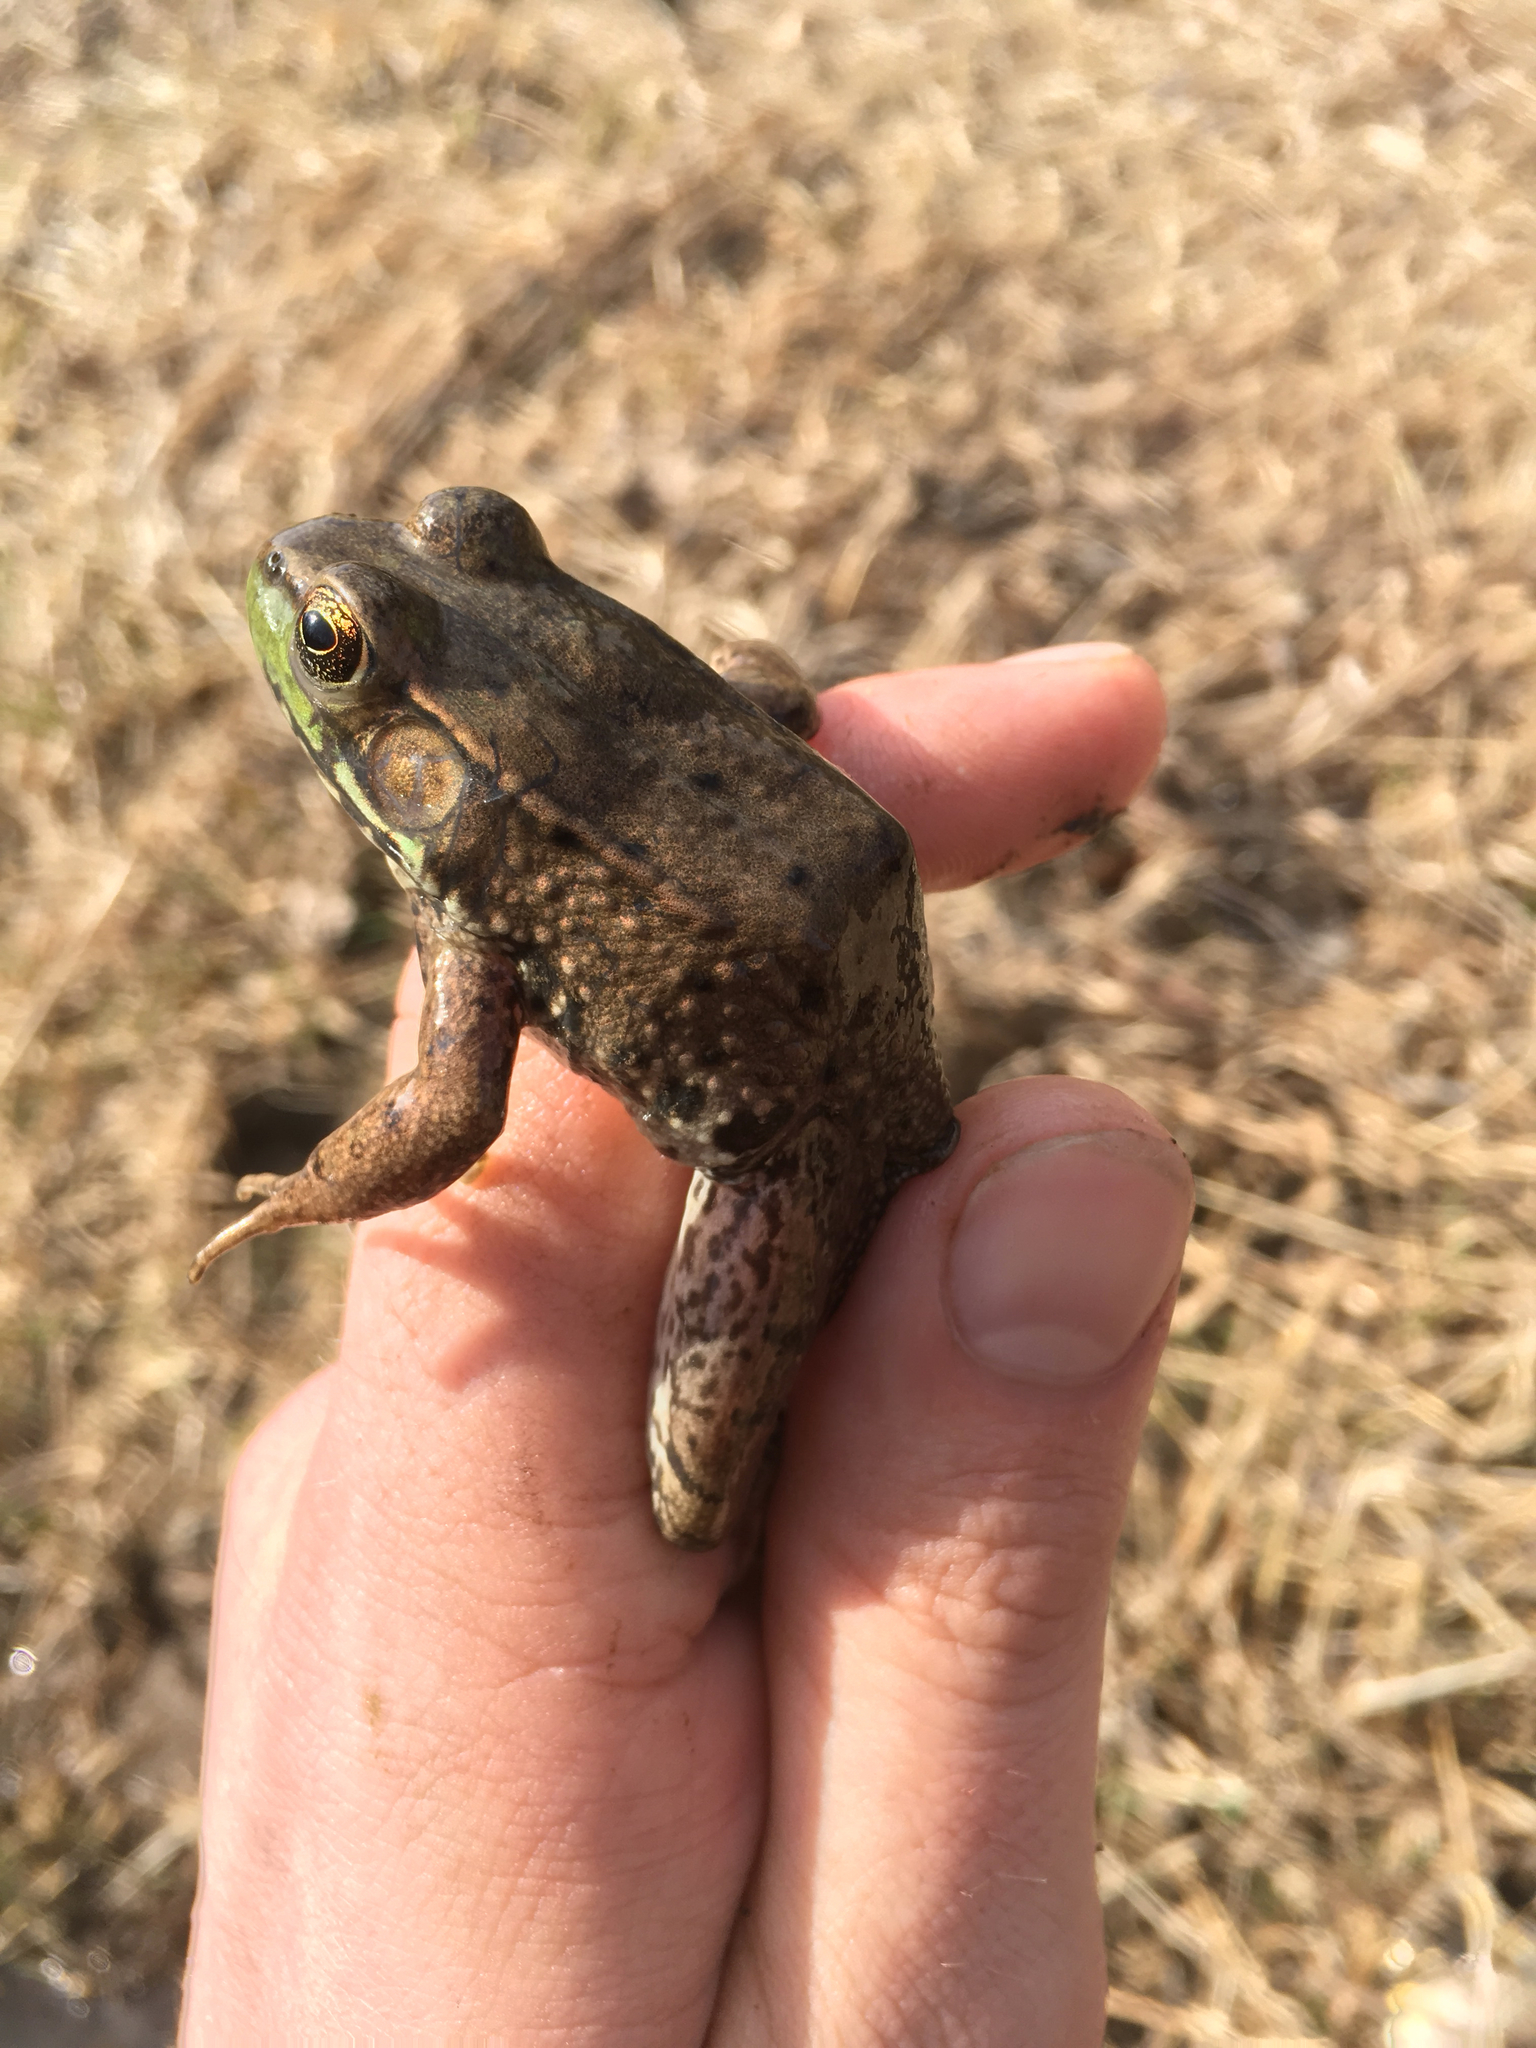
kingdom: Animalia
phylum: Chordata
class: Amphibia
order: Anura
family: Ranidae
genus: Lithobates
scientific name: Lithobates clamitans
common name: Green frog
